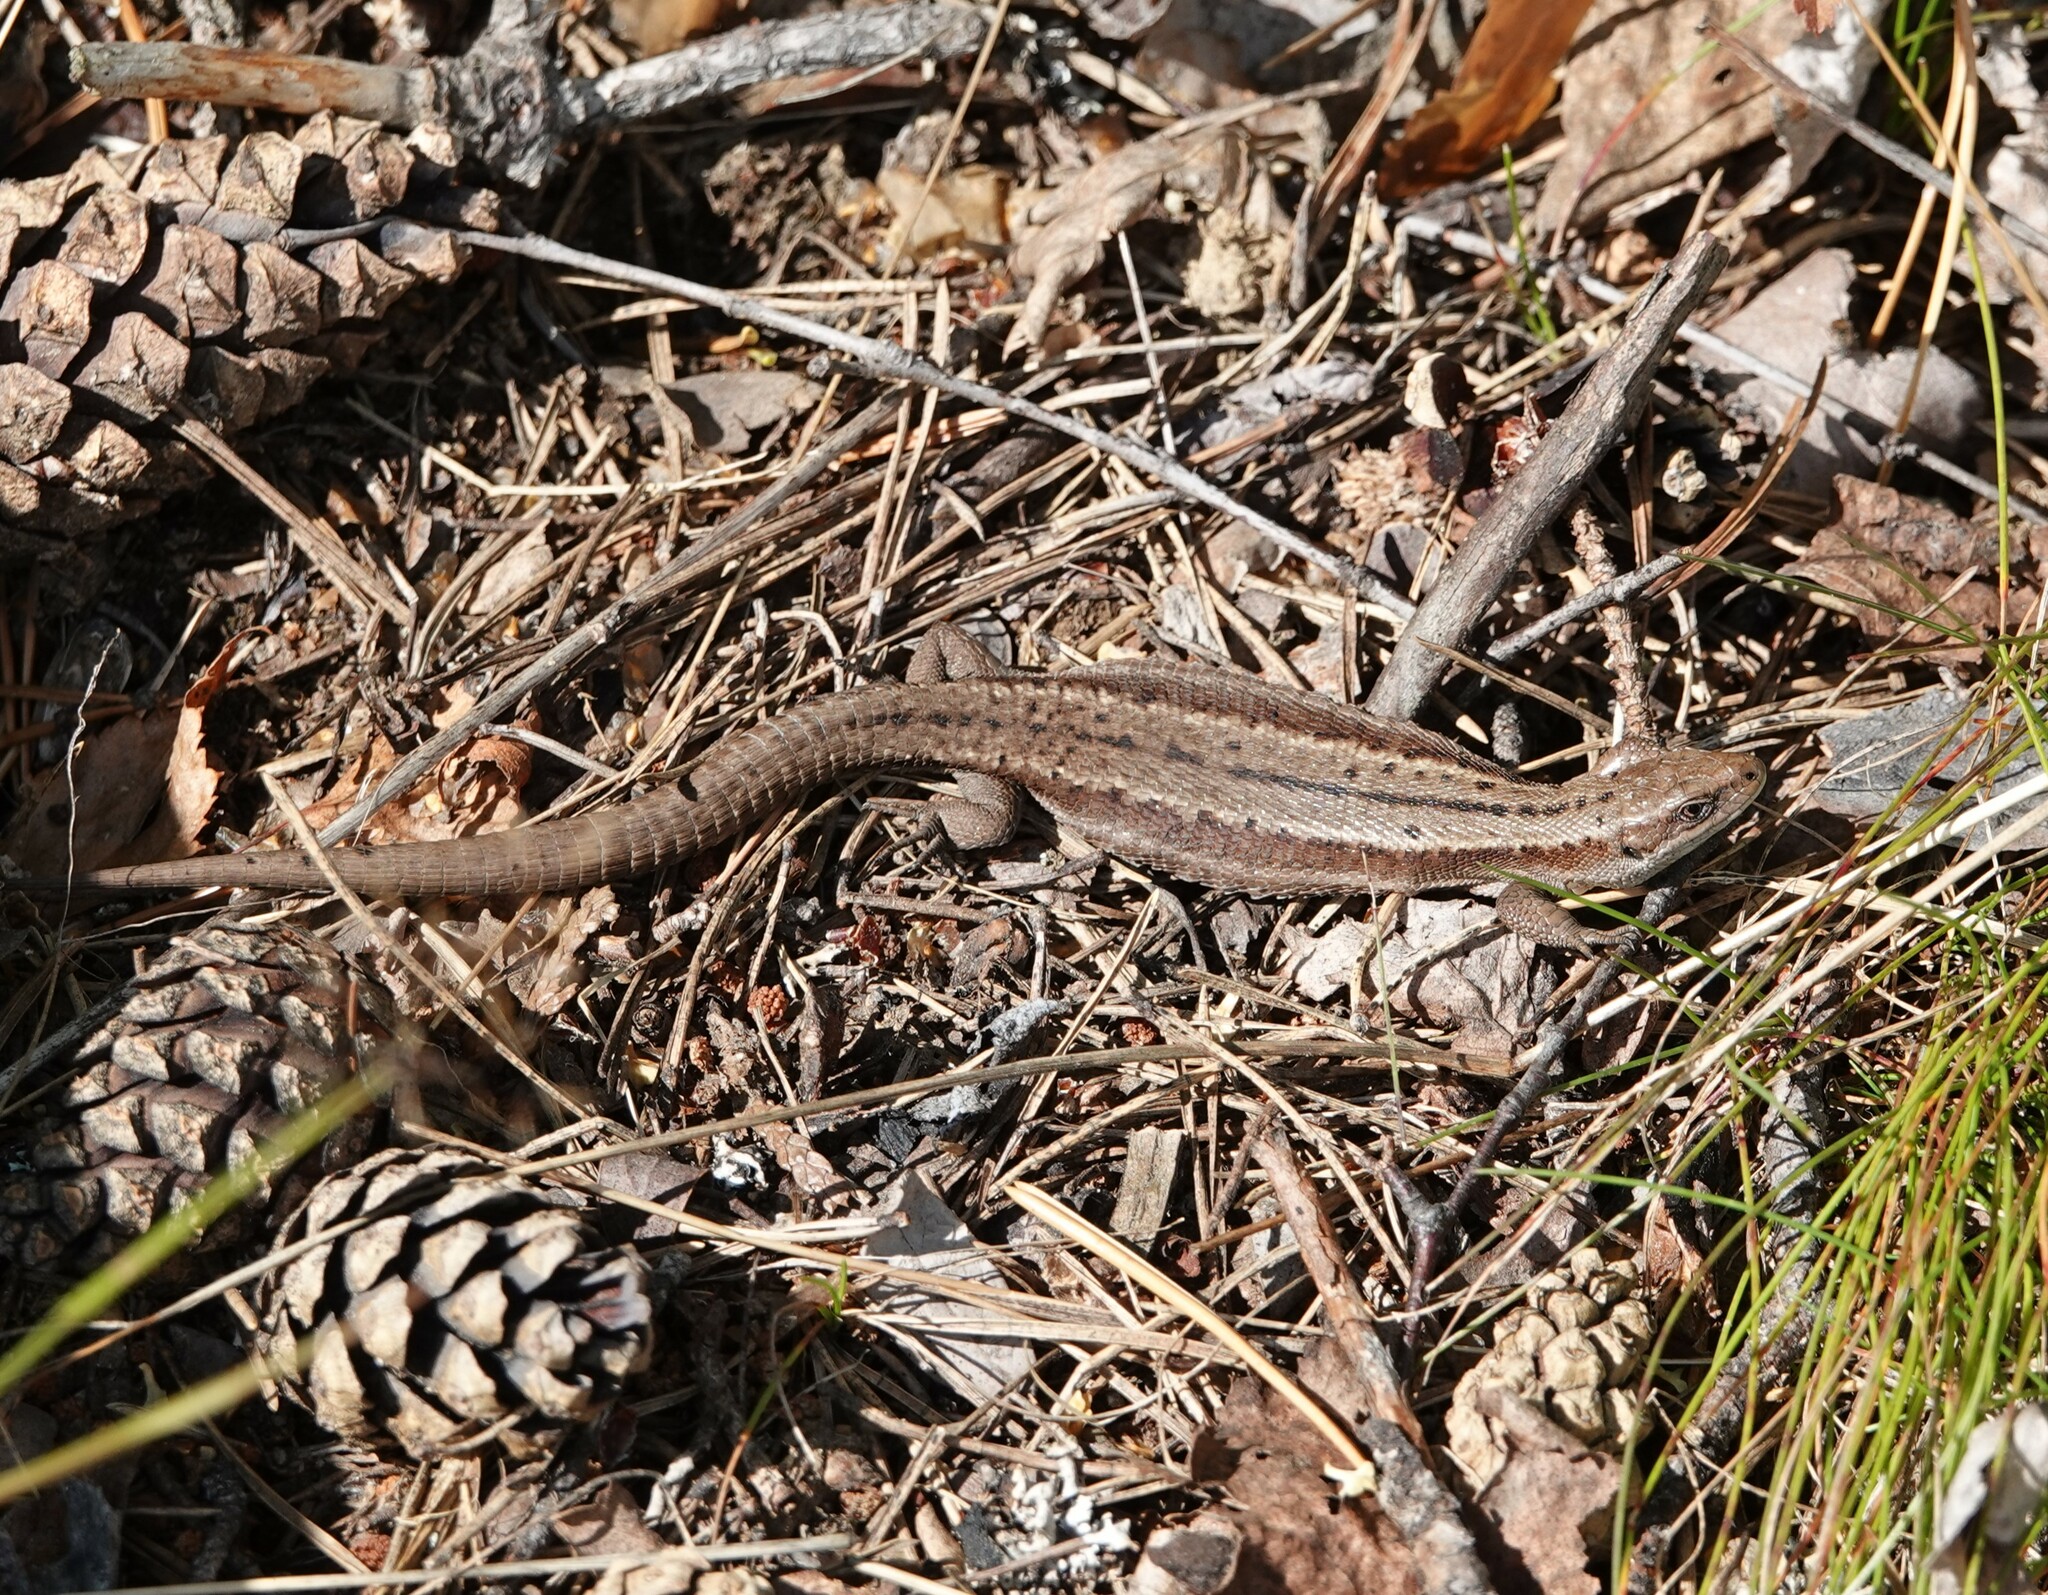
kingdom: Animalia
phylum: Chordata
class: Squamata
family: Lacertidae
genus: Zootoca
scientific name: Zootoca vivipara
